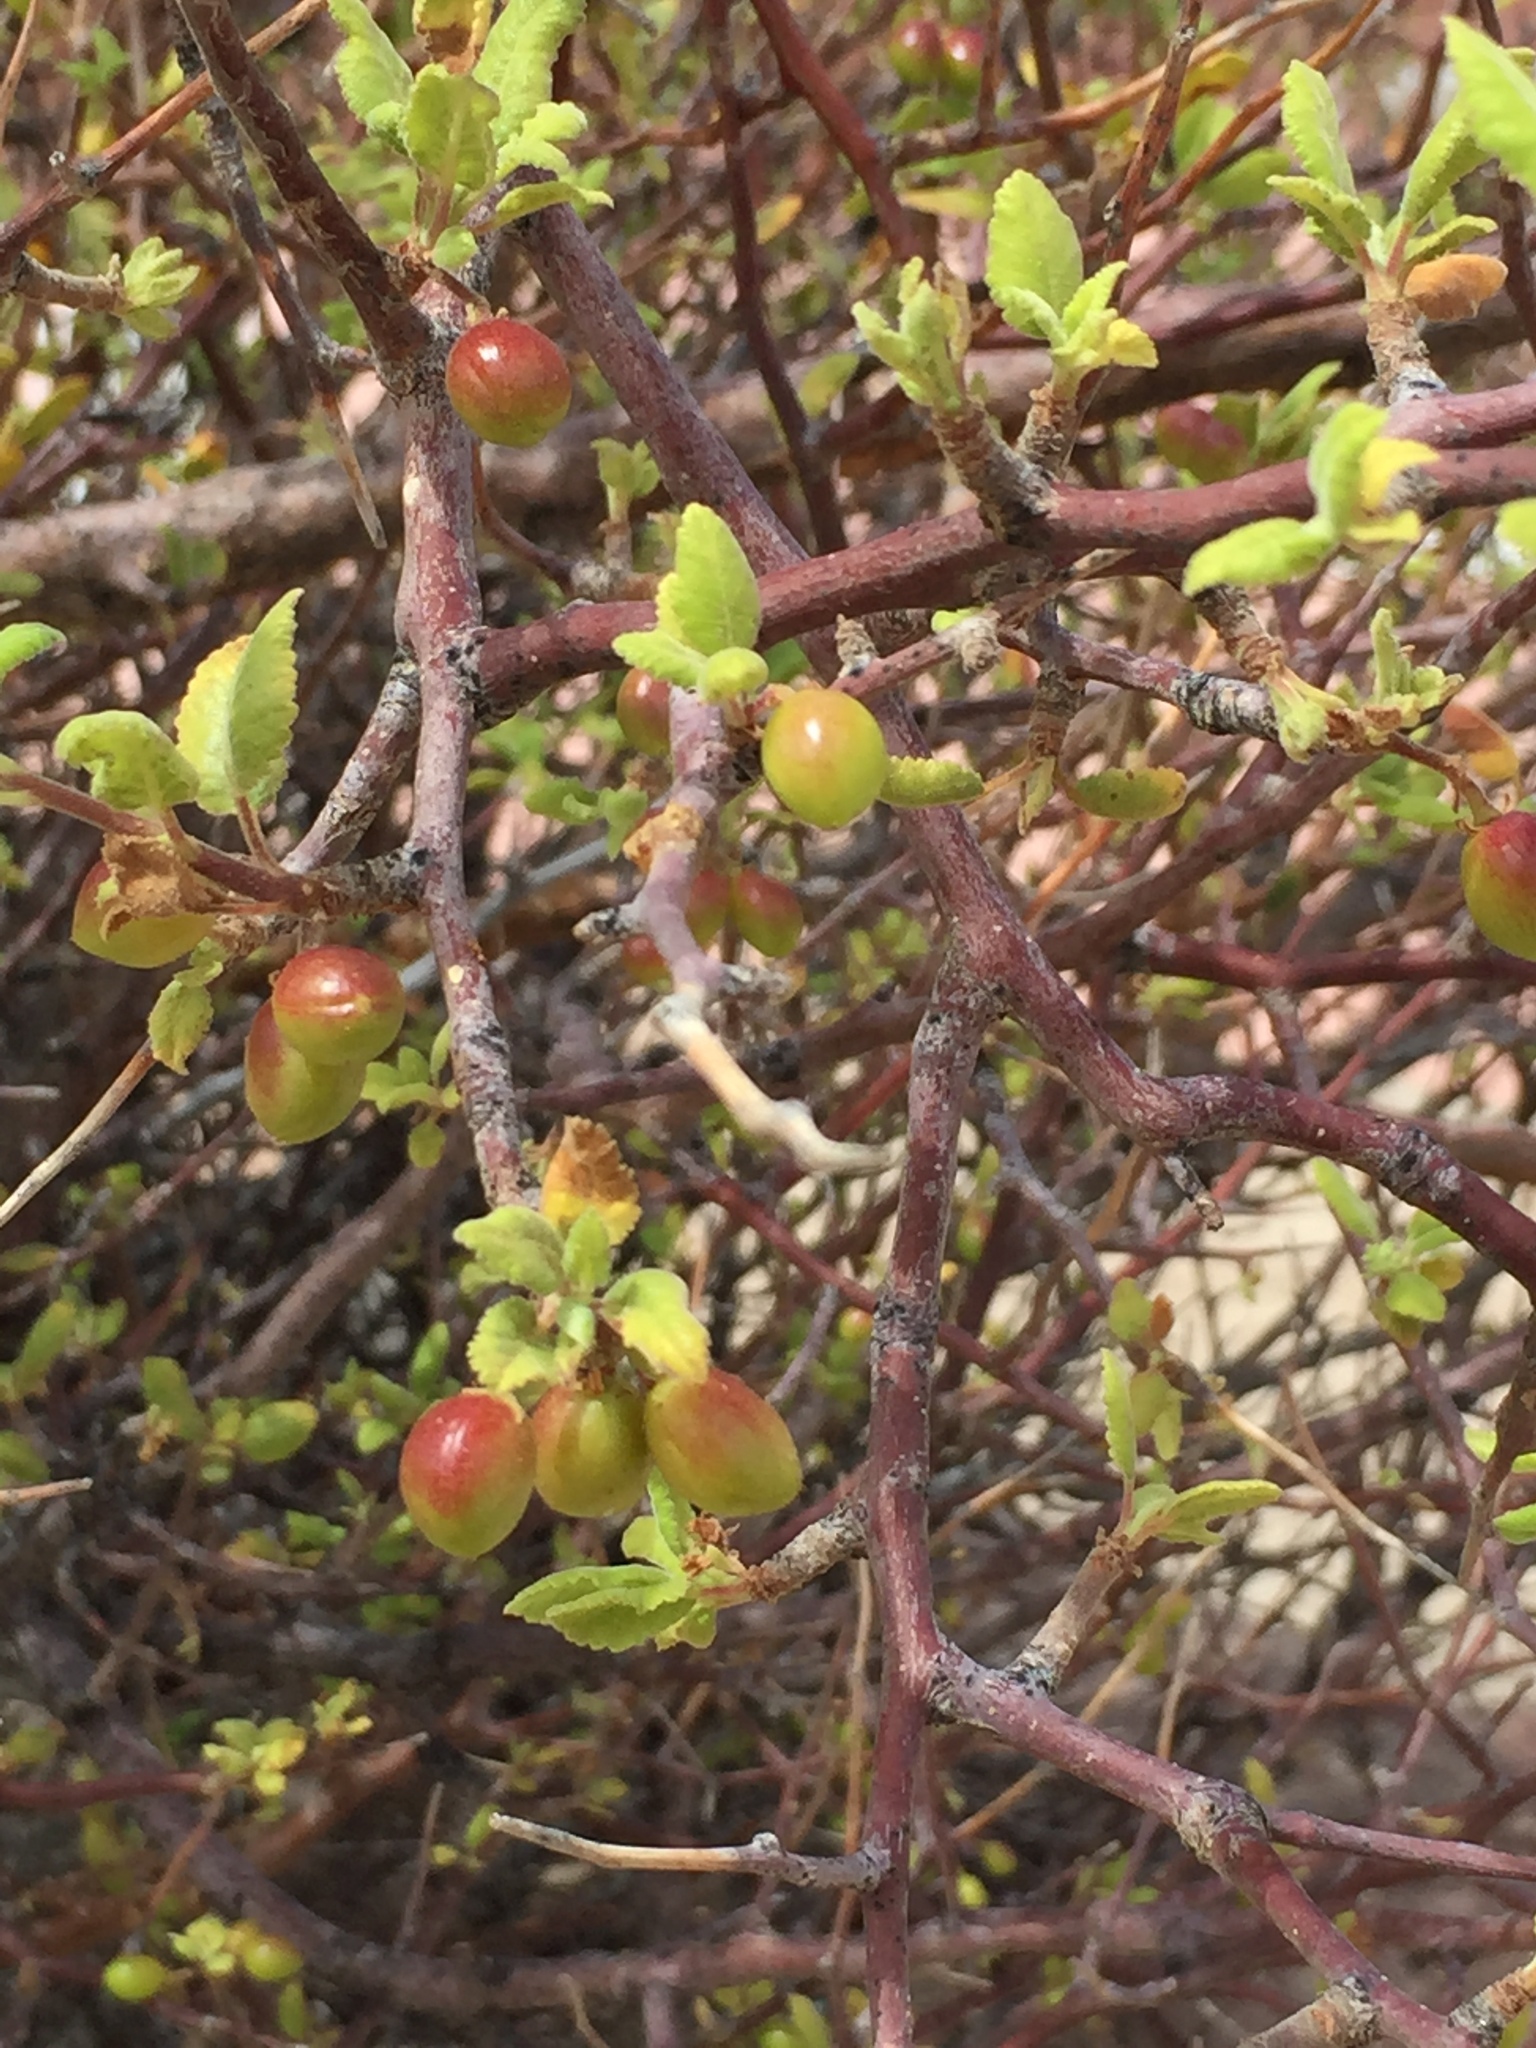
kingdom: Plantae
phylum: Tracheophyta
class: Magnoliopsida
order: Sapindales
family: Burseraceae
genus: Bursera
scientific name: Bursera hindsiana
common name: Red elephant tree
